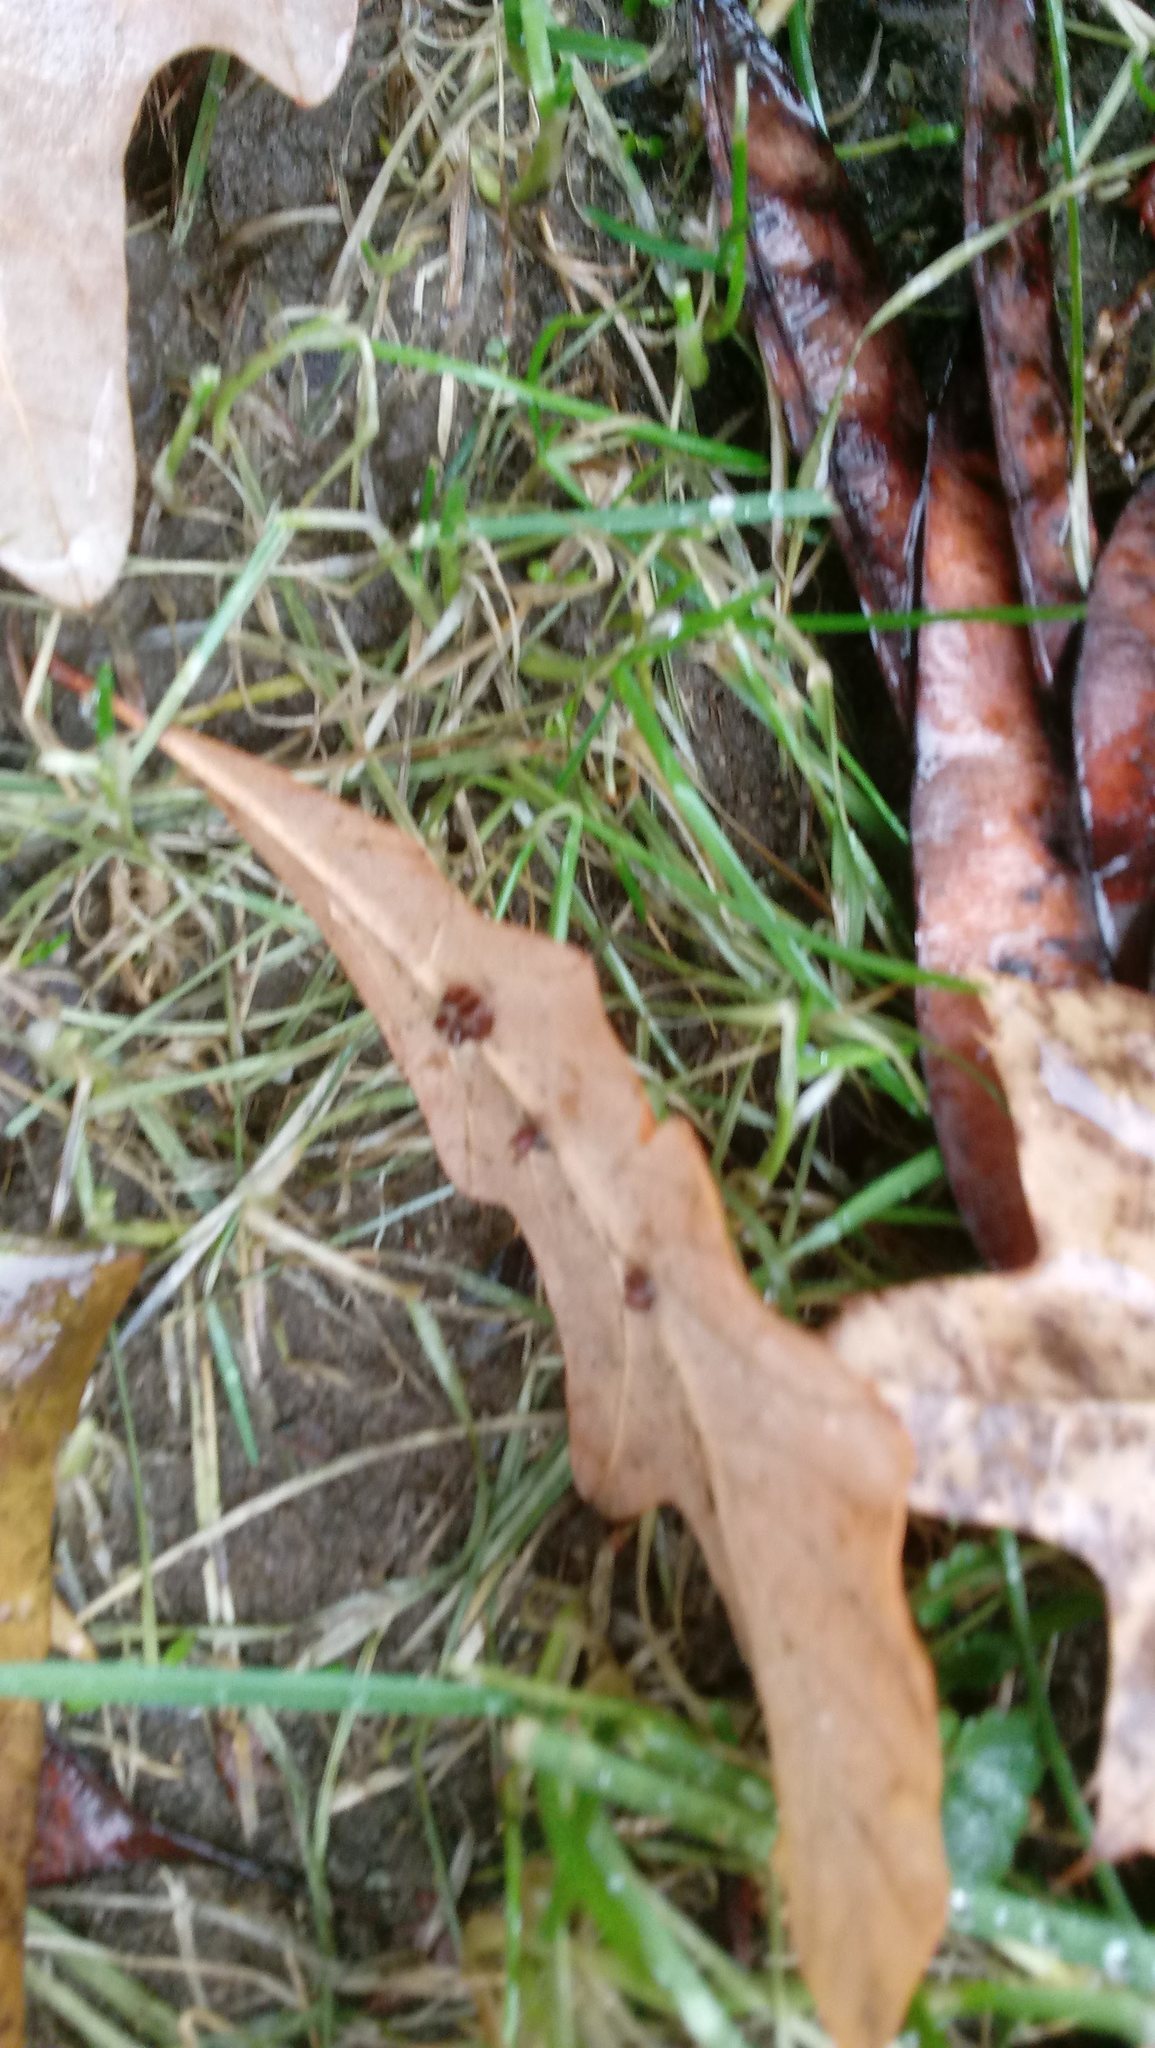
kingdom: Animalia
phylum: Arthropoda
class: Insecta
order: Hymenoptera
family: Cynipidae
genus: Andricus
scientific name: Andricus Druon ignotum
